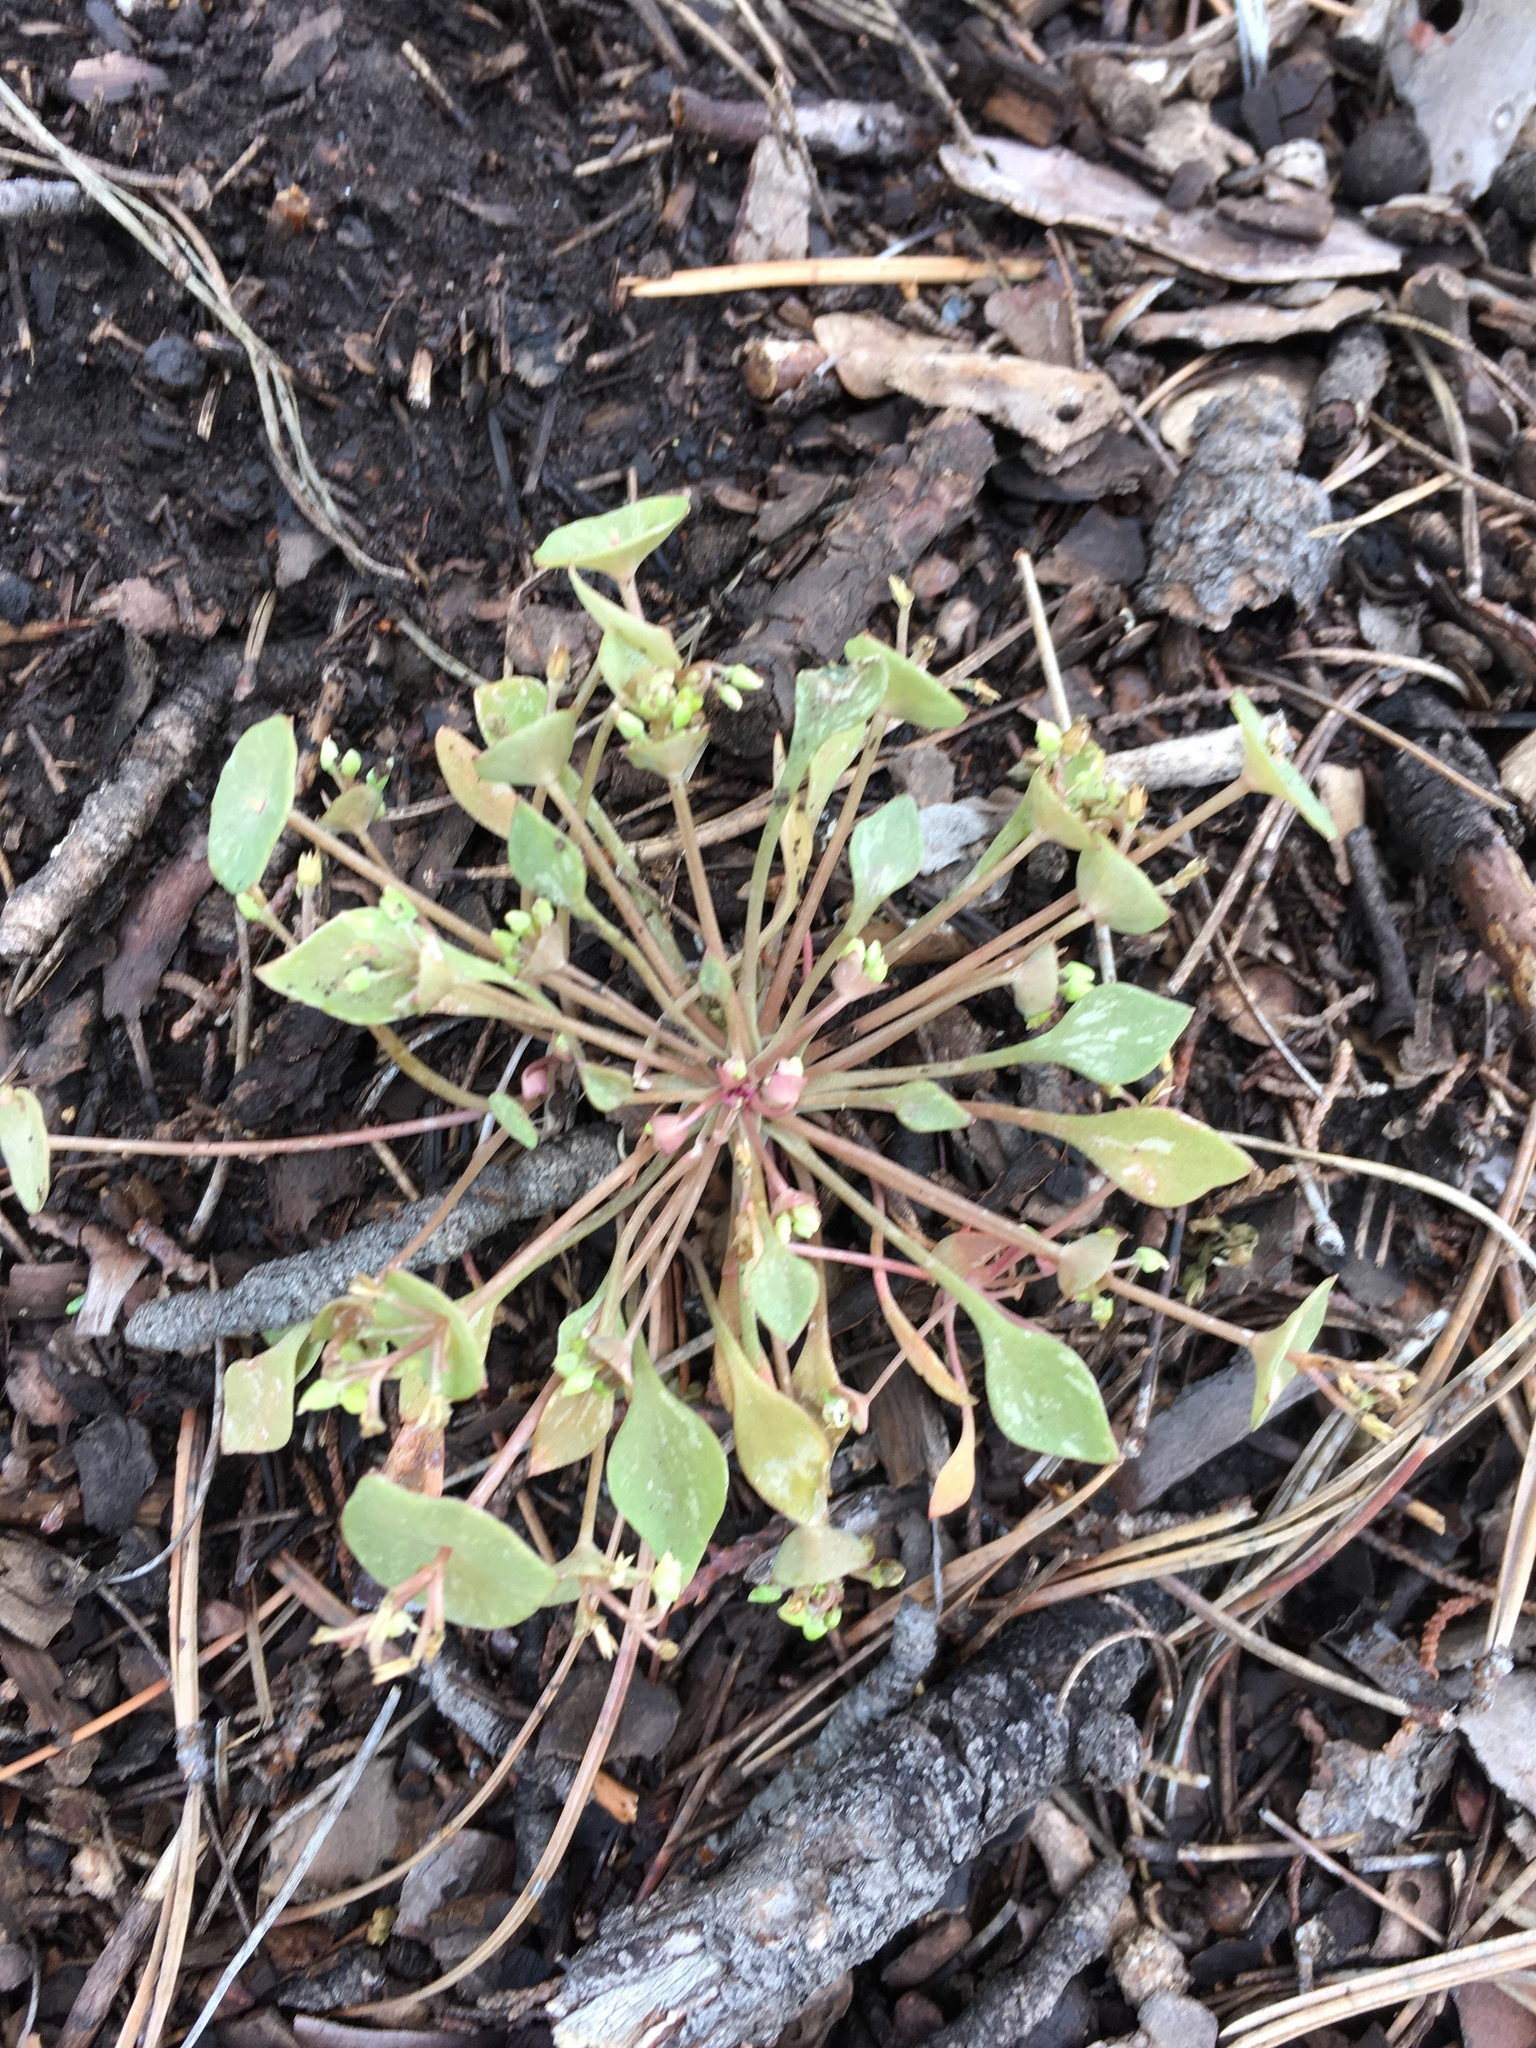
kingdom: Plantae
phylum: Tracheophyta
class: Magnoliopsida
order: Caryophyllales
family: Montiaceae
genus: Claytonia
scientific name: Claytonia perfoliata
